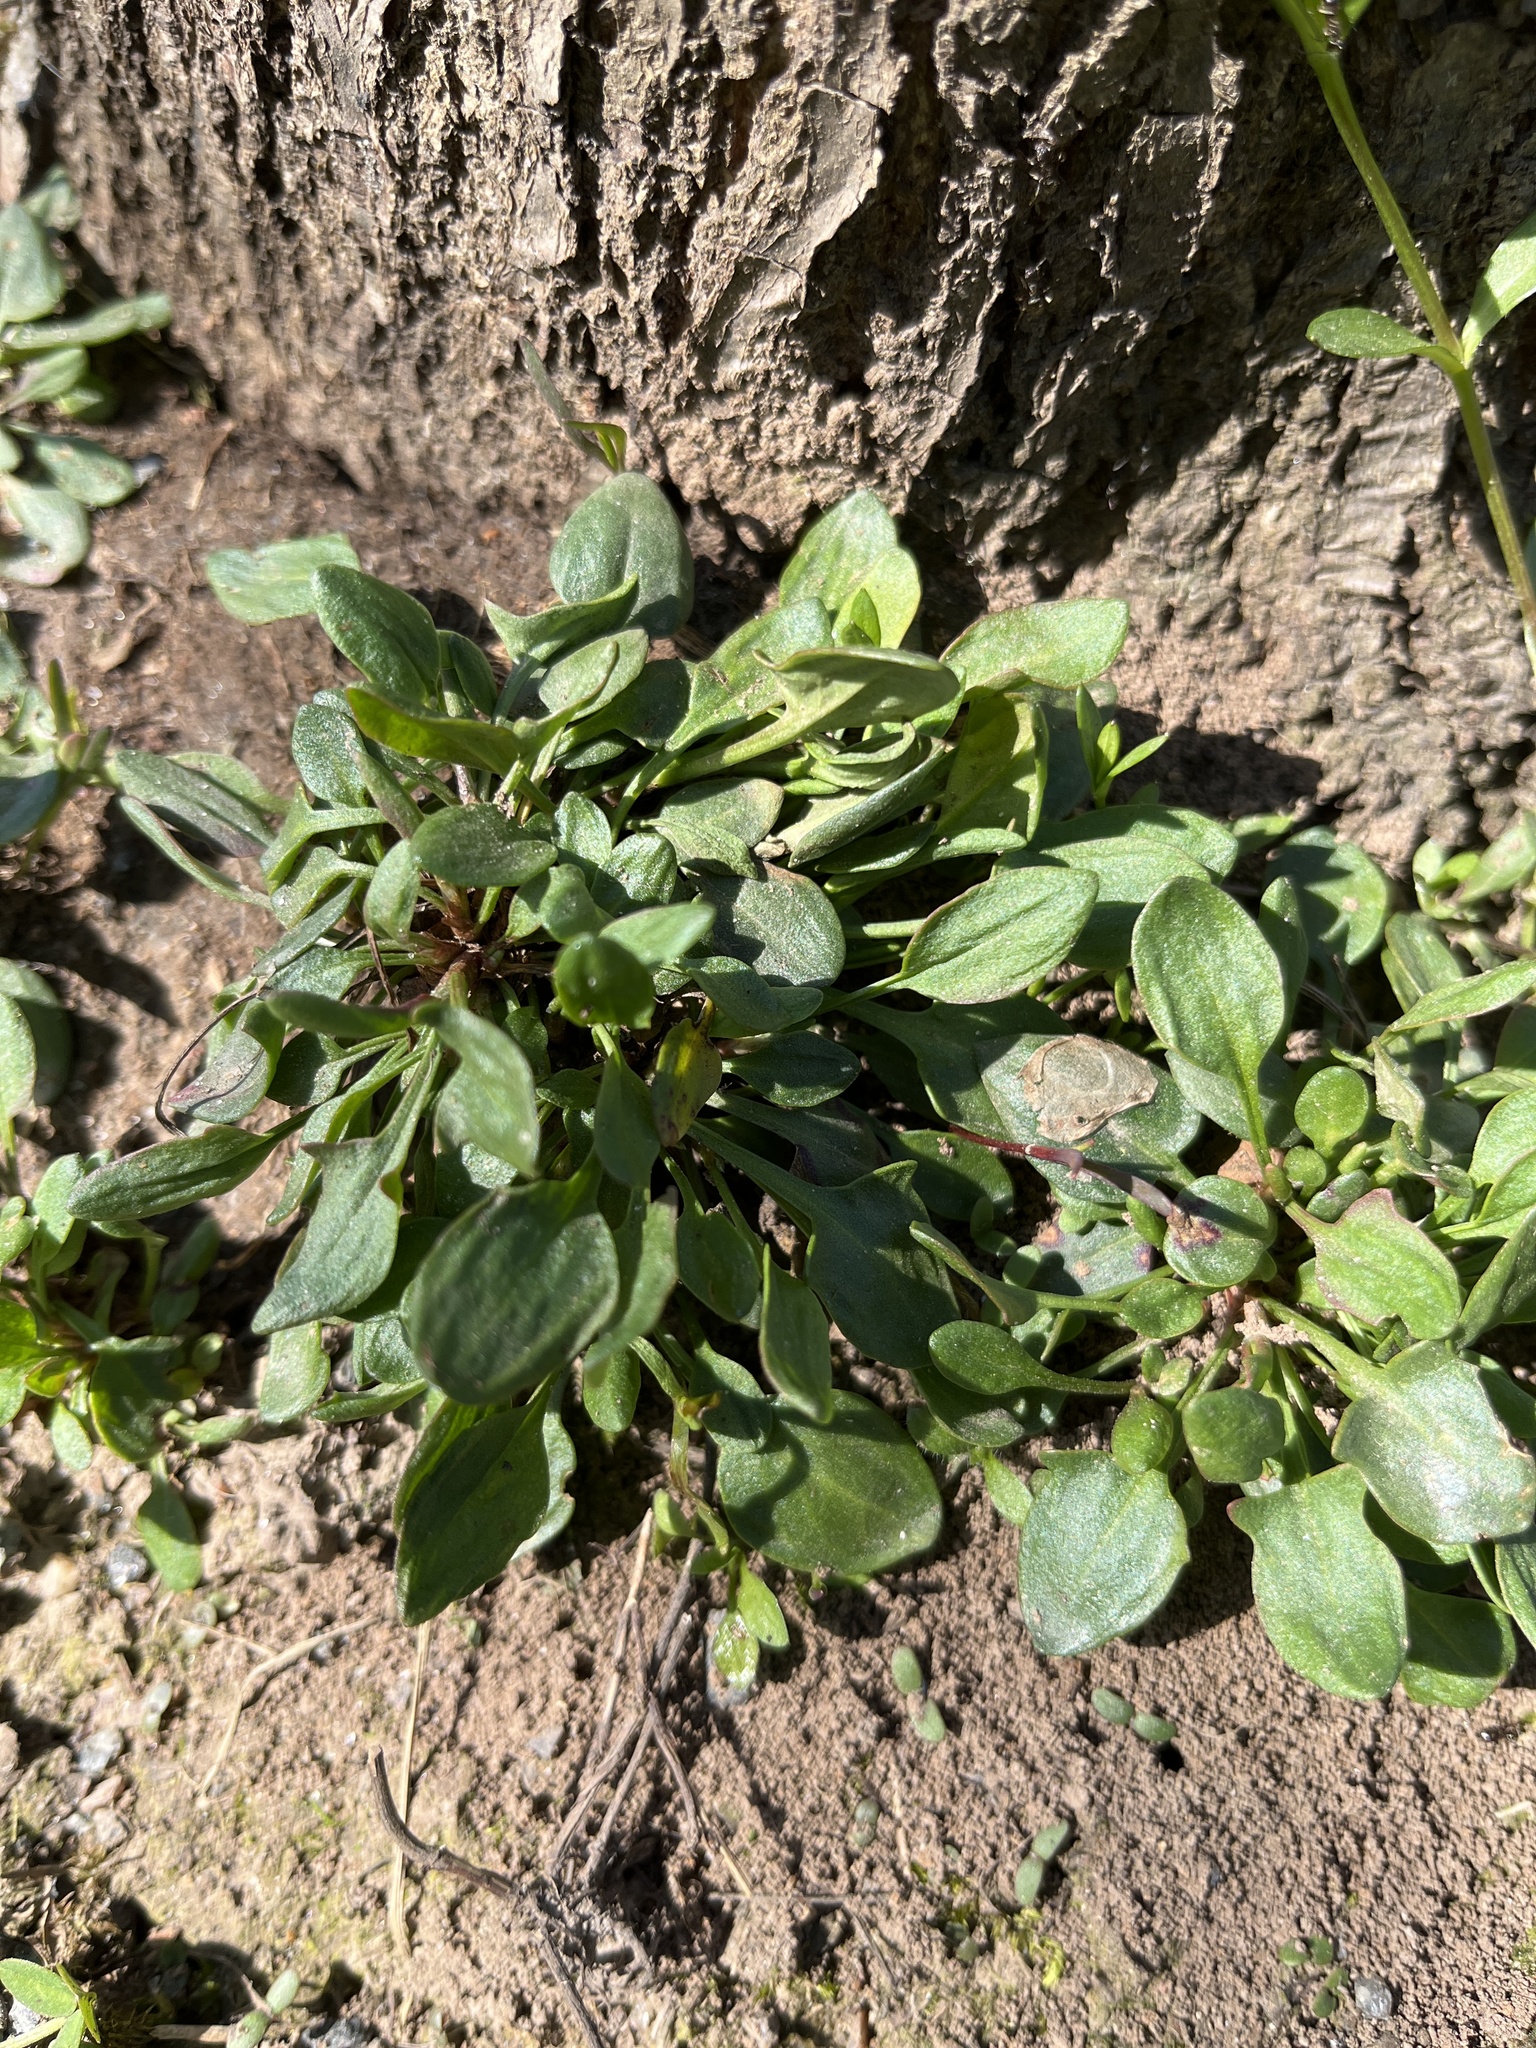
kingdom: Plantae
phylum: Tracheophyta
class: Magnoliopsida
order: Caryophyllales
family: Polygonaceae
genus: Rumex
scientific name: Rumex acetosella
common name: Common sheep sorrel
